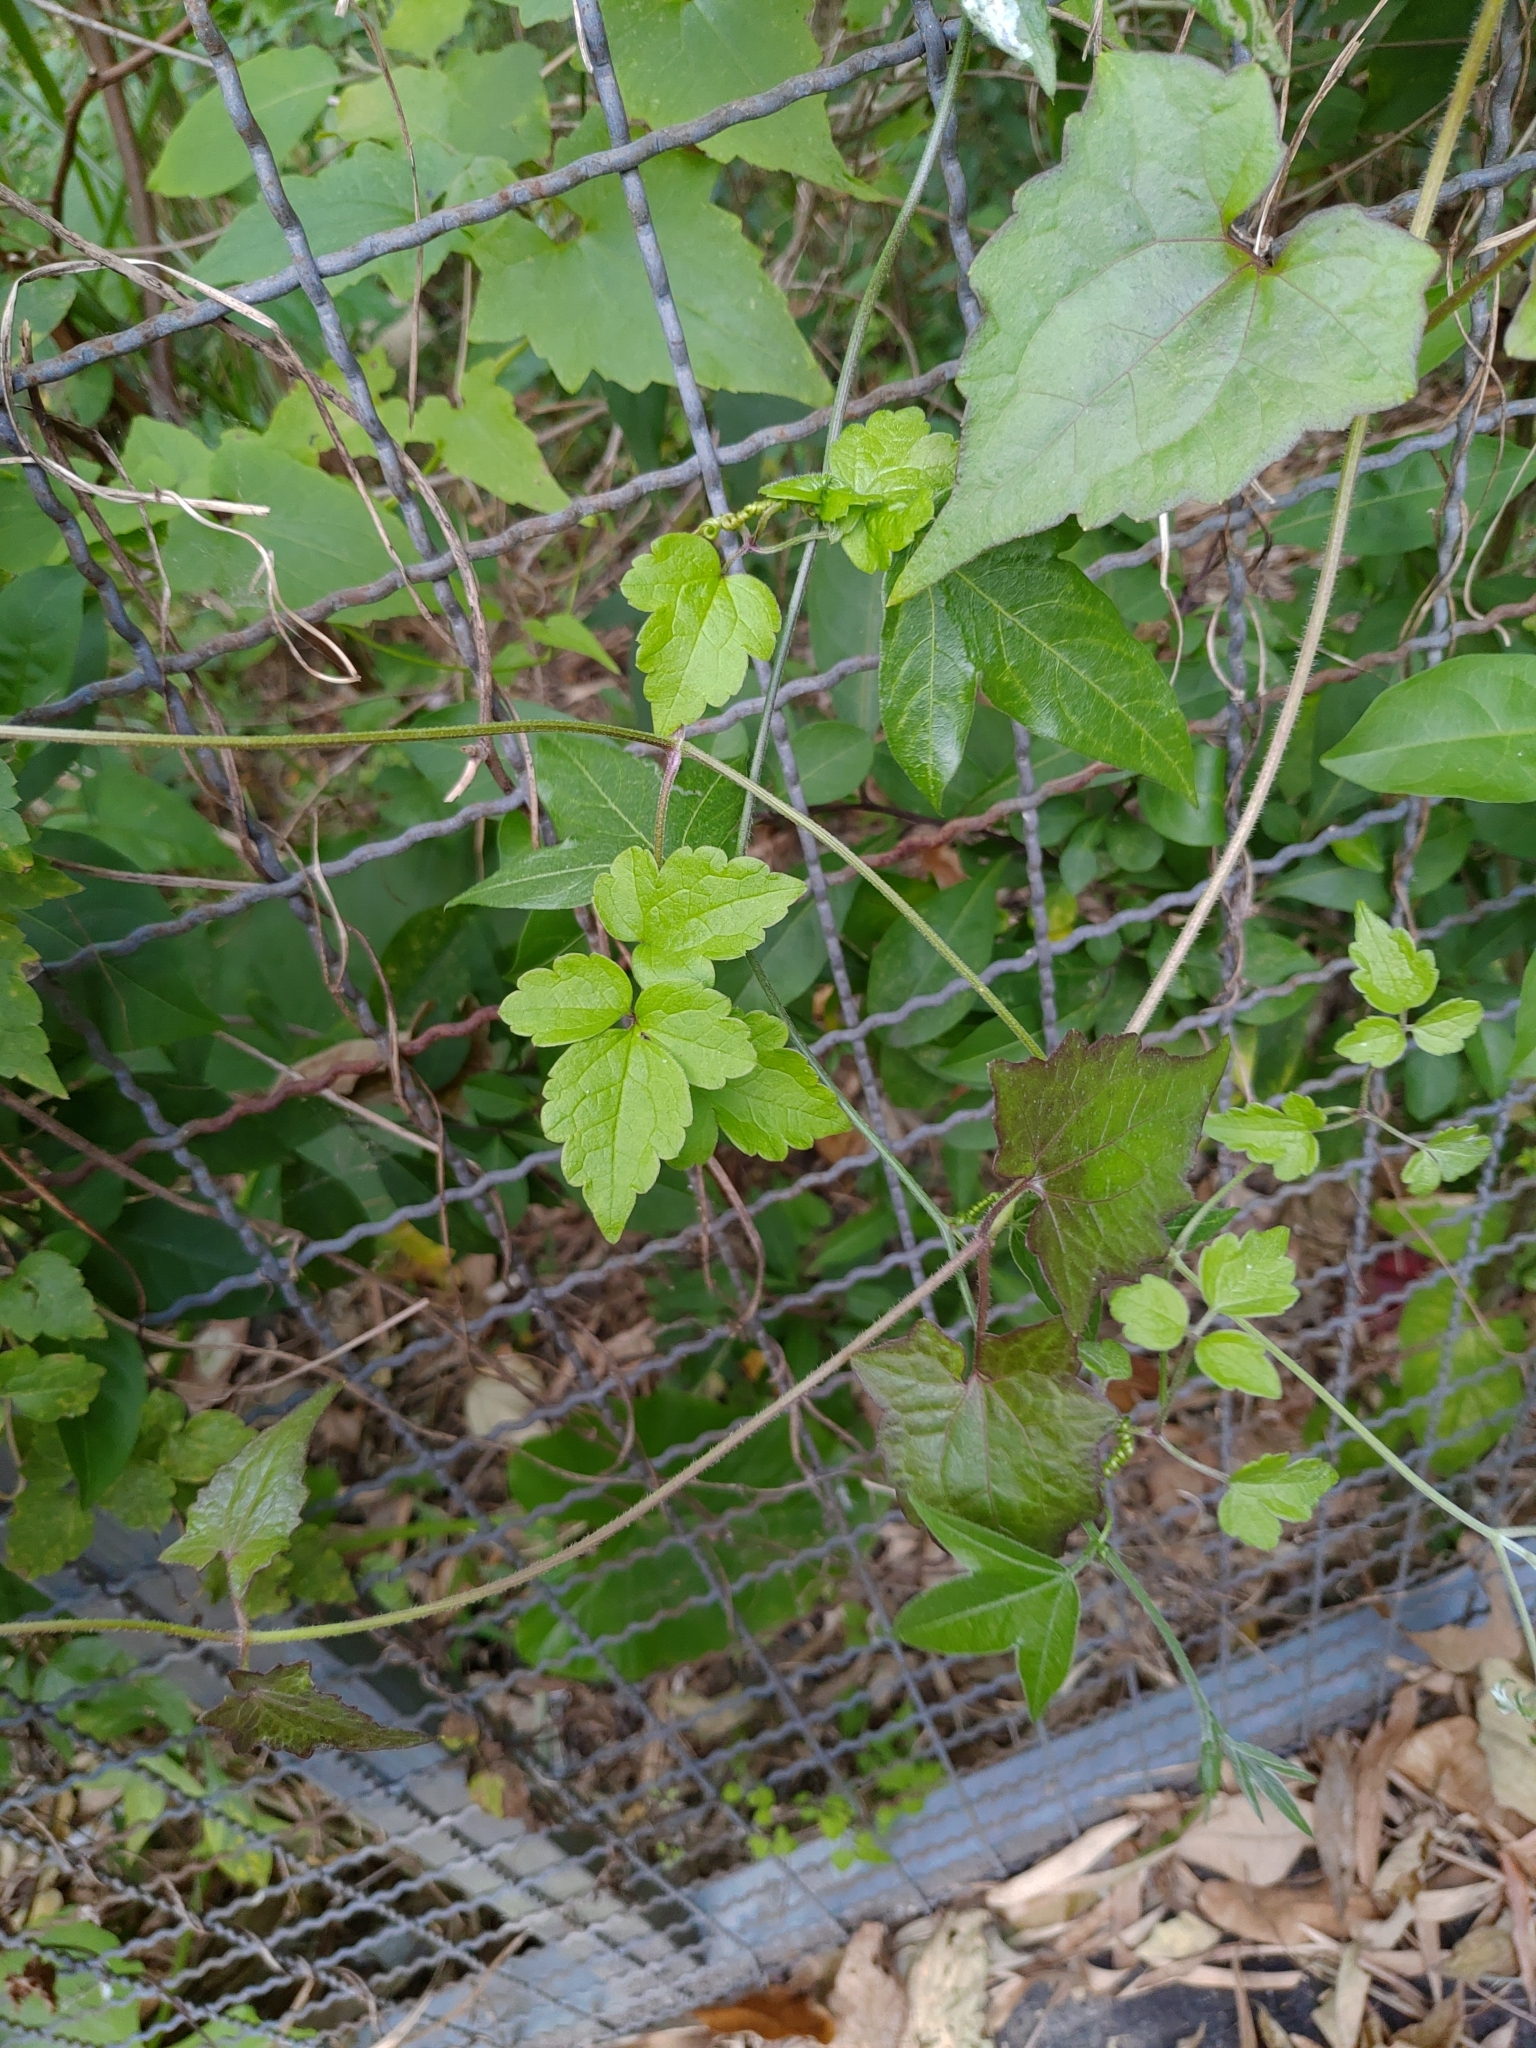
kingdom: Plantae
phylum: Tracheophyta
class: Magnoliopsida
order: Ranunculales
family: Ranunculaceae
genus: Clematis
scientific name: Clematis grata
